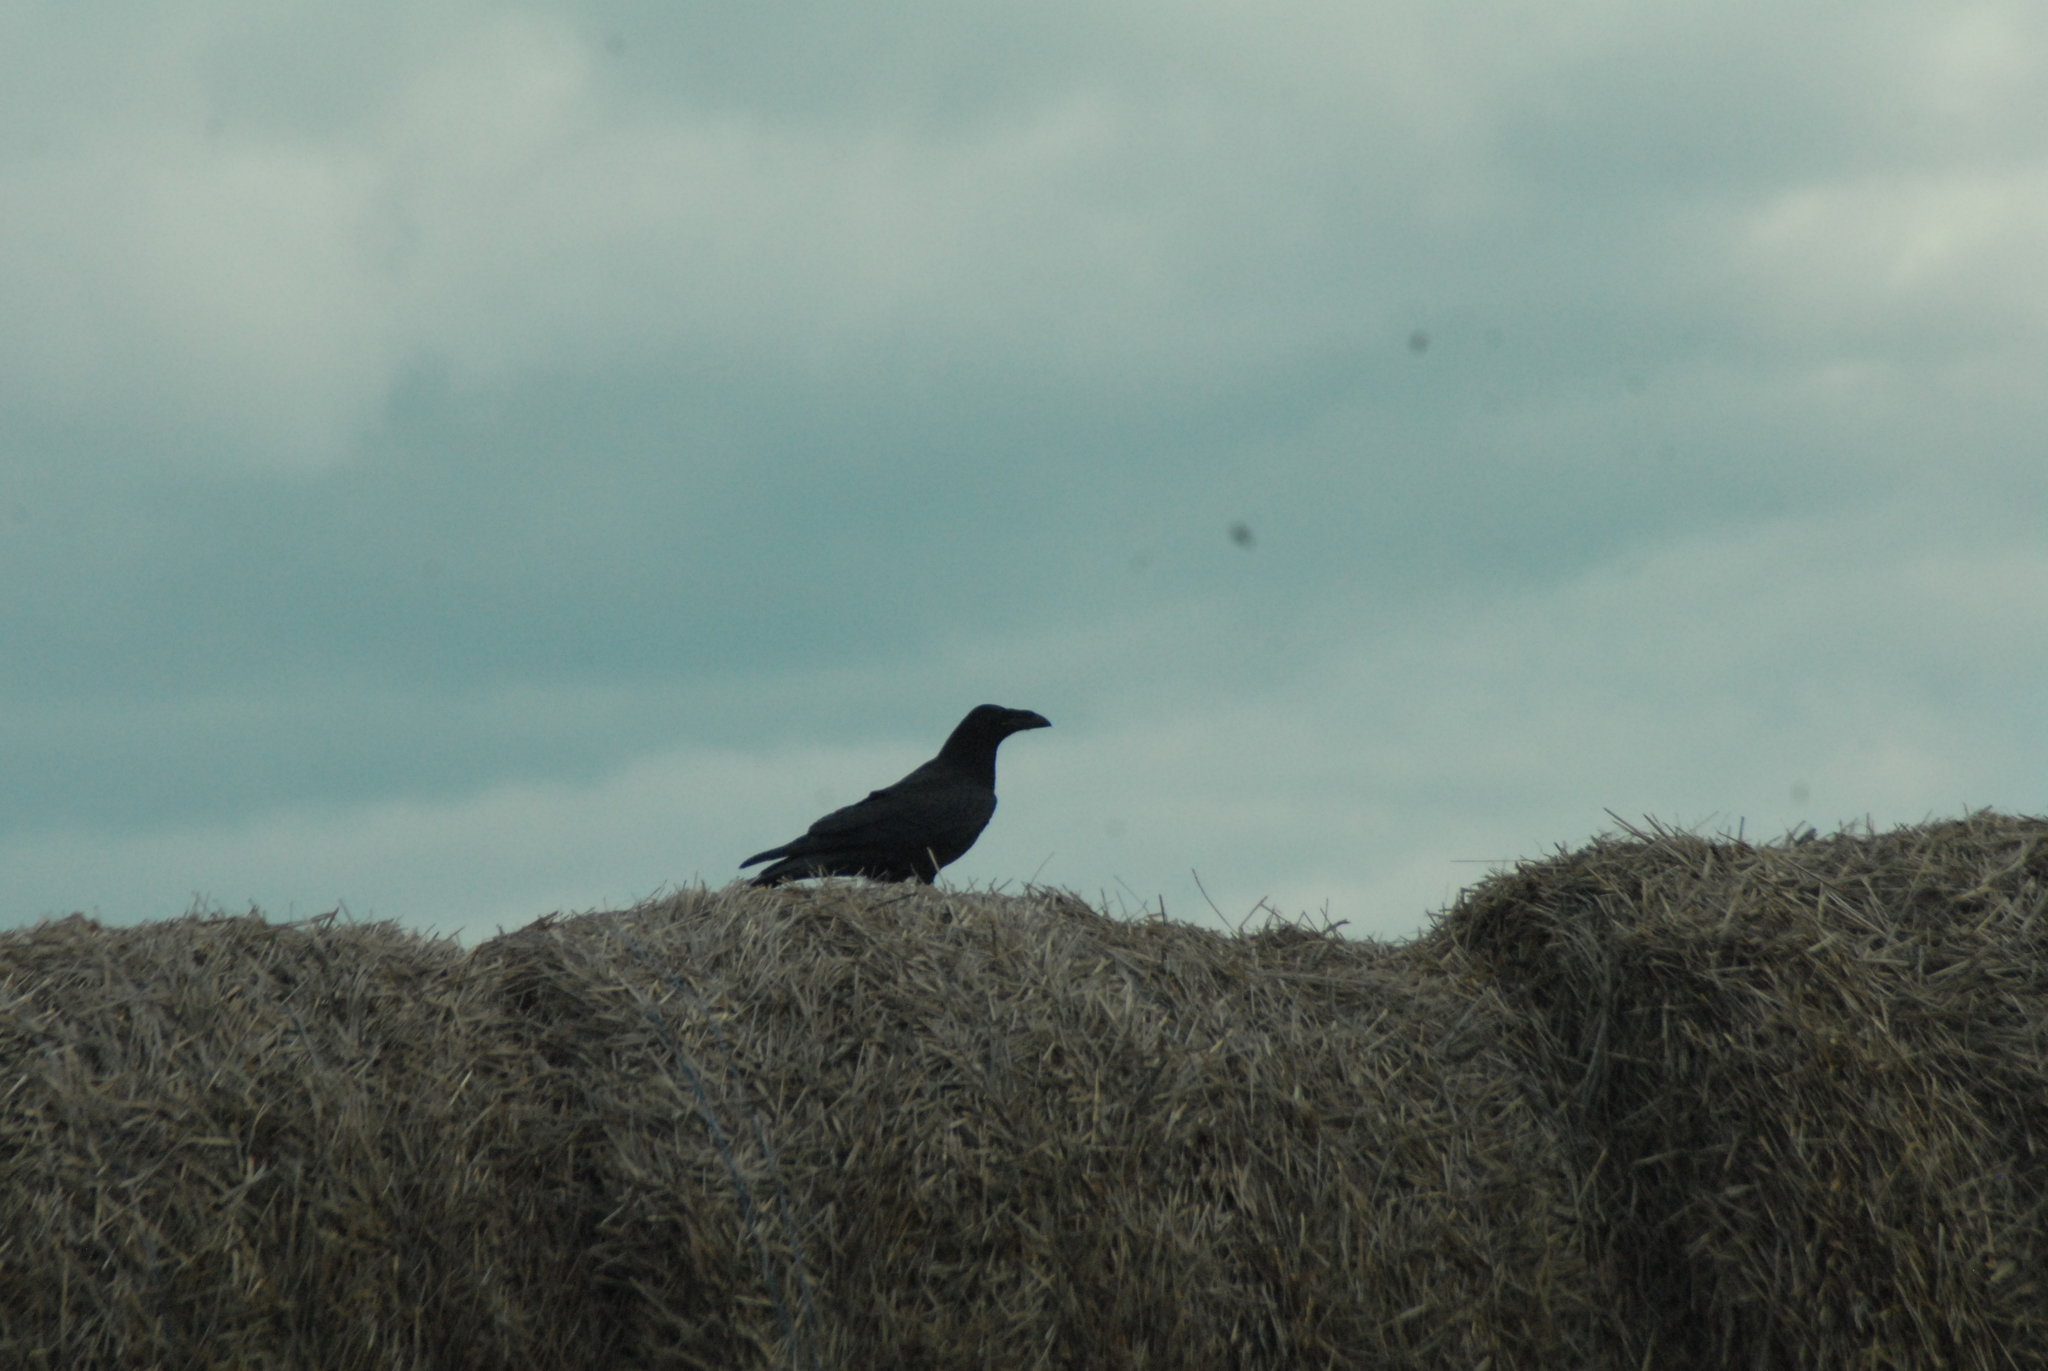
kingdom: Animalia
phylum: Chordata
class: Aves
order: Passeriformes
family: Corvidae
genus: Corvus
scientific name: Corvus corax
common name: Common raven
